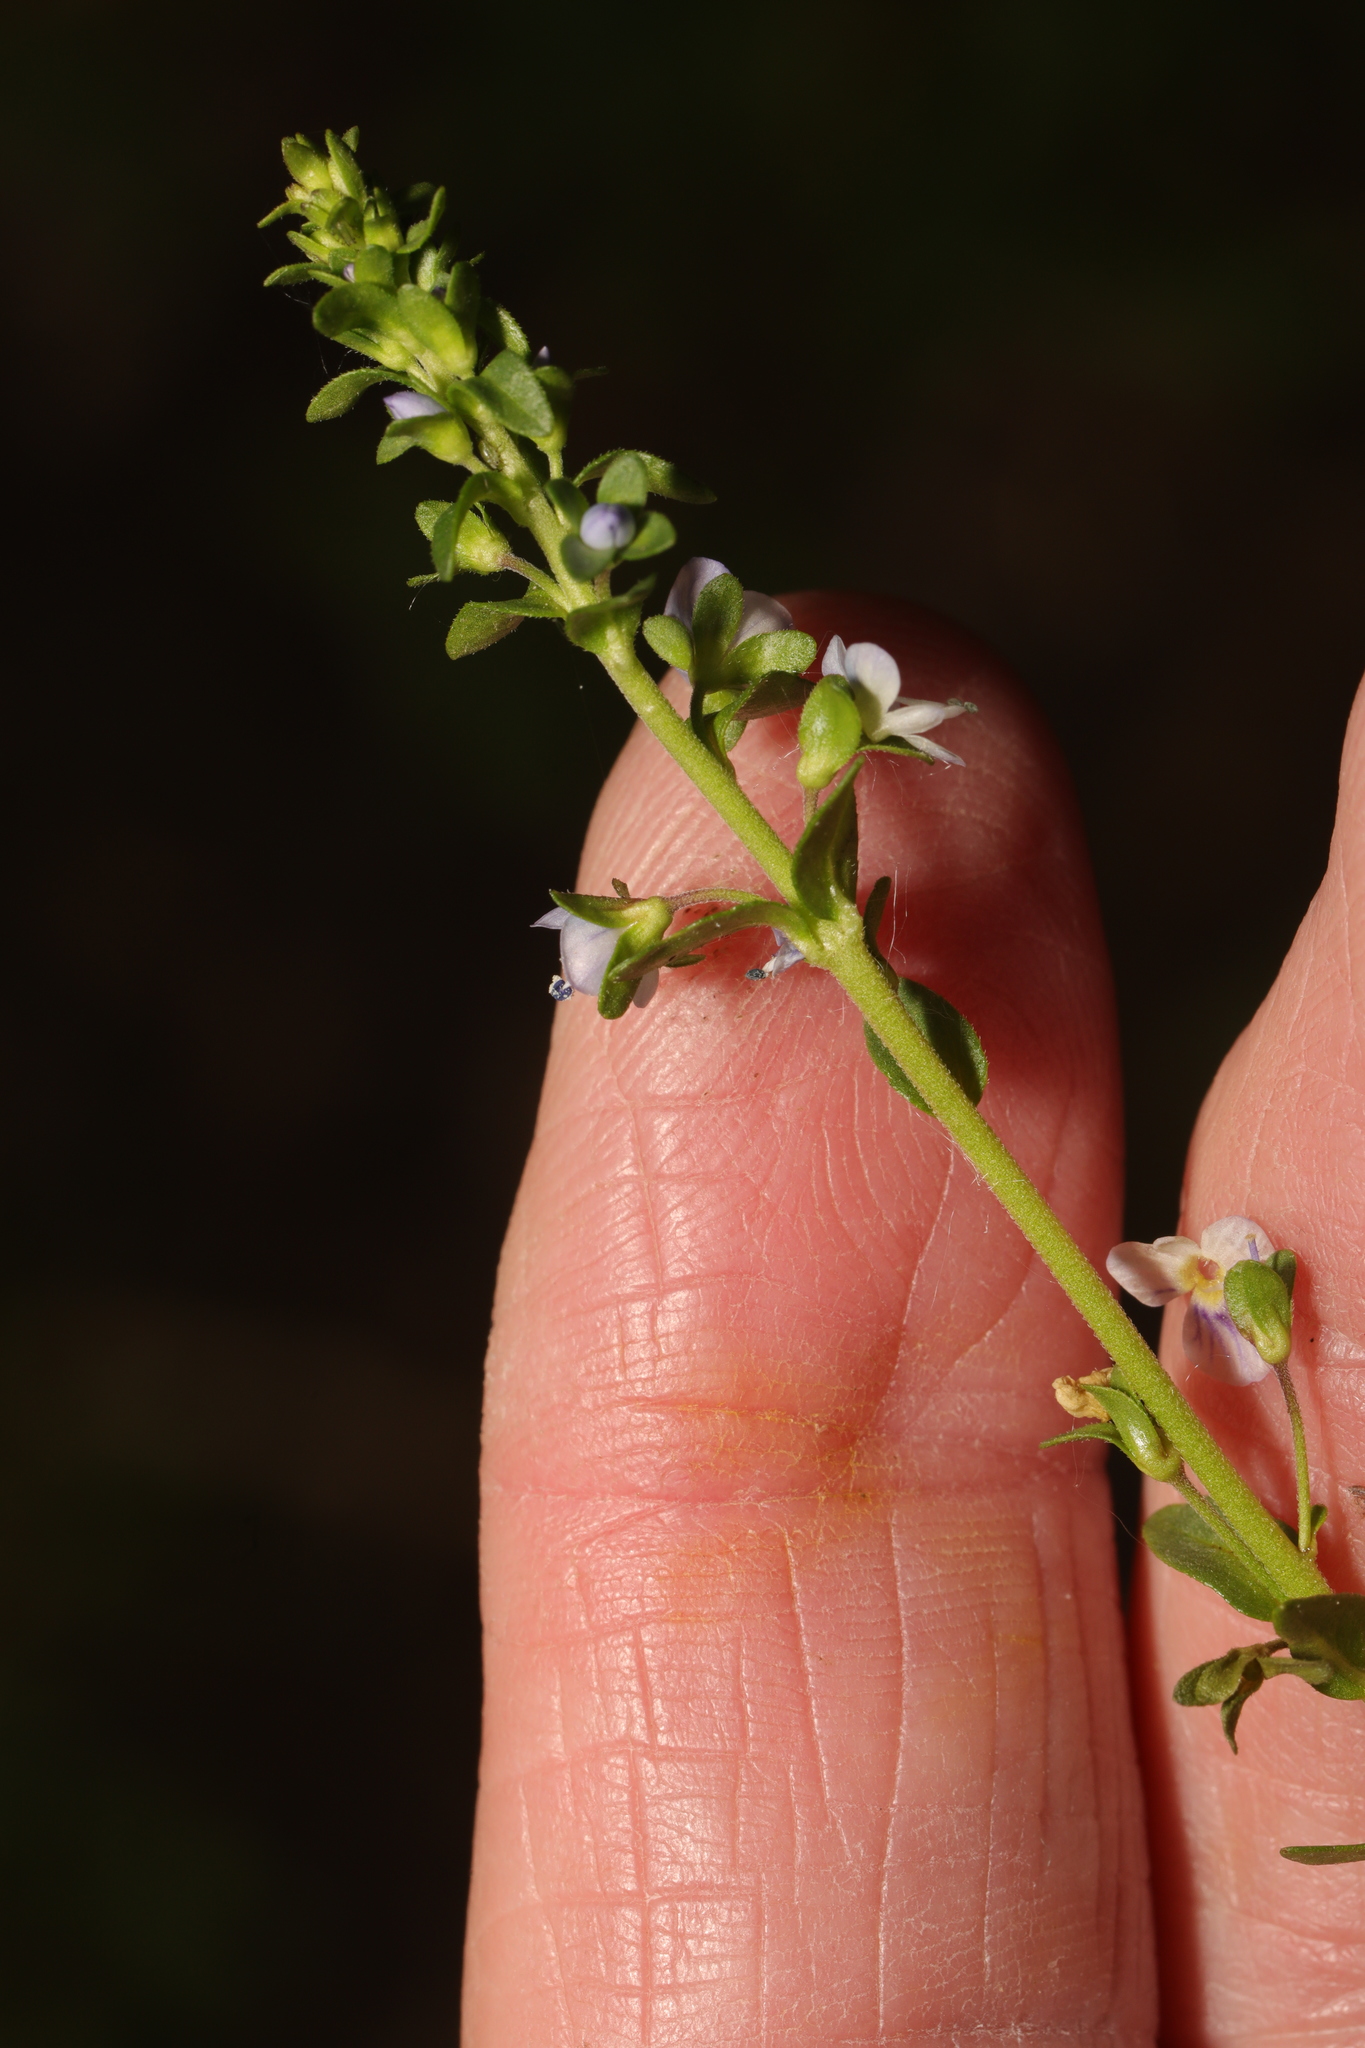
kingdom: Plantae
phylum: Tracheophyta
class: Magnoliopsida
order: Lamiales
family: Plantaginaceae
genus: Veronica
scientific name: Veronica serpyllifolia
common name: Thyme-leaved speedwell
